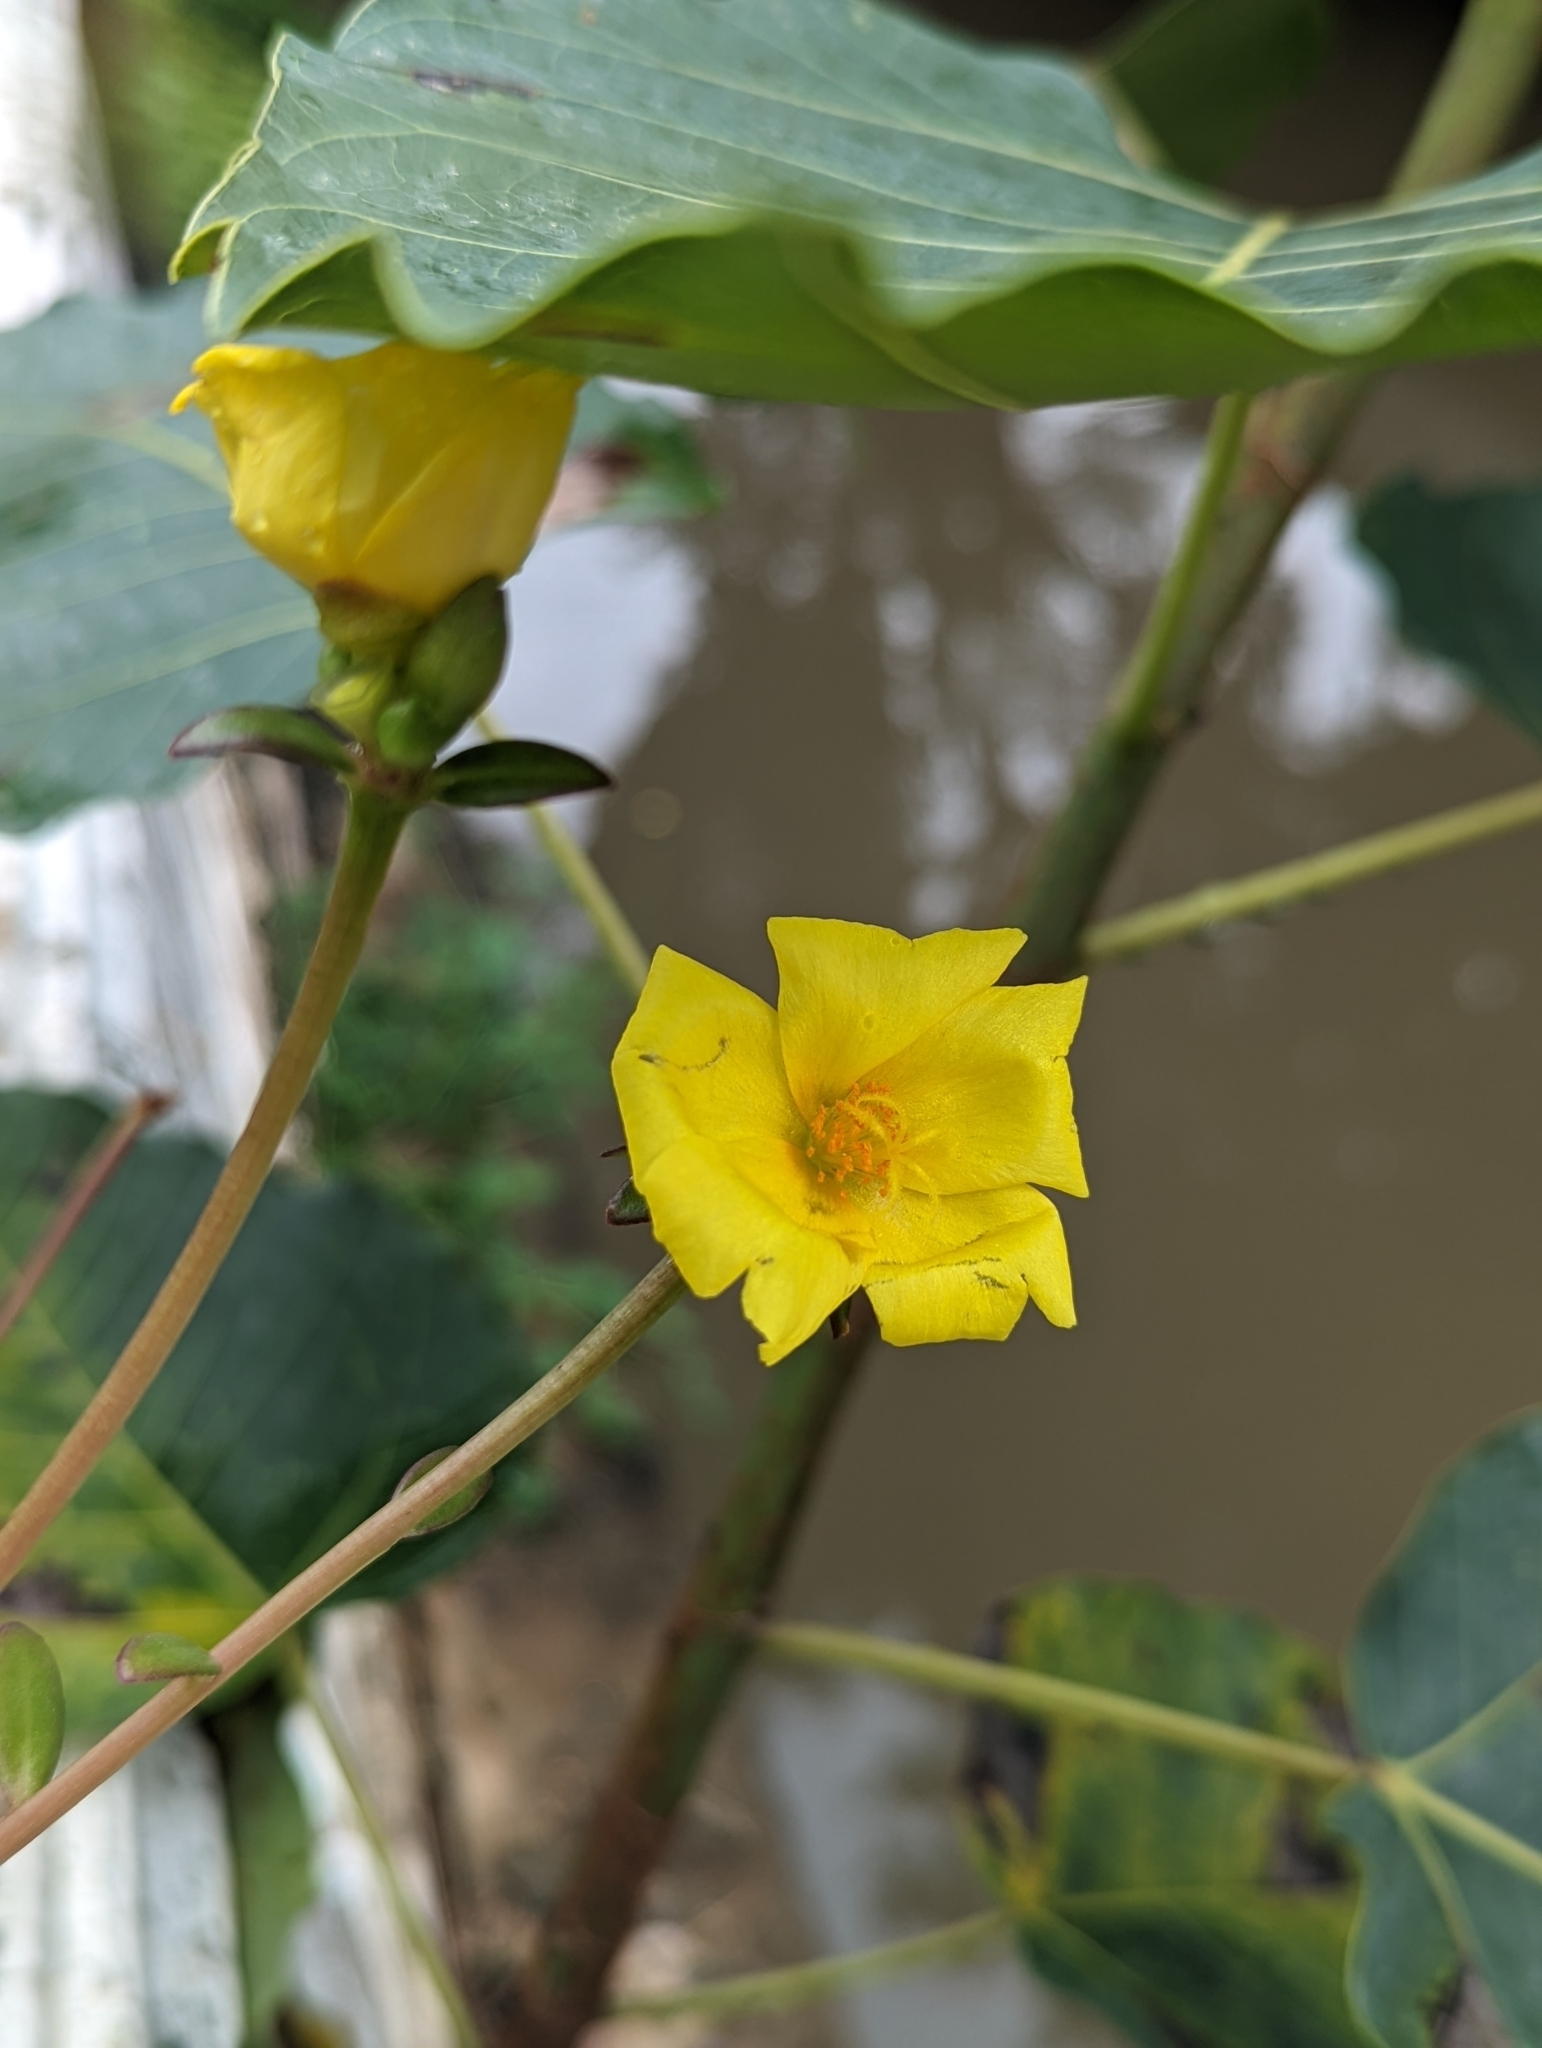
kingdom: Plantae
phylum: Tracheophyta
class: Magnoliopsida
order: Caryophyllales
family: Portulacaceae
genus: Portulaca
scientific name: Portulaca umbraticola
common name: Wingpod purslane
